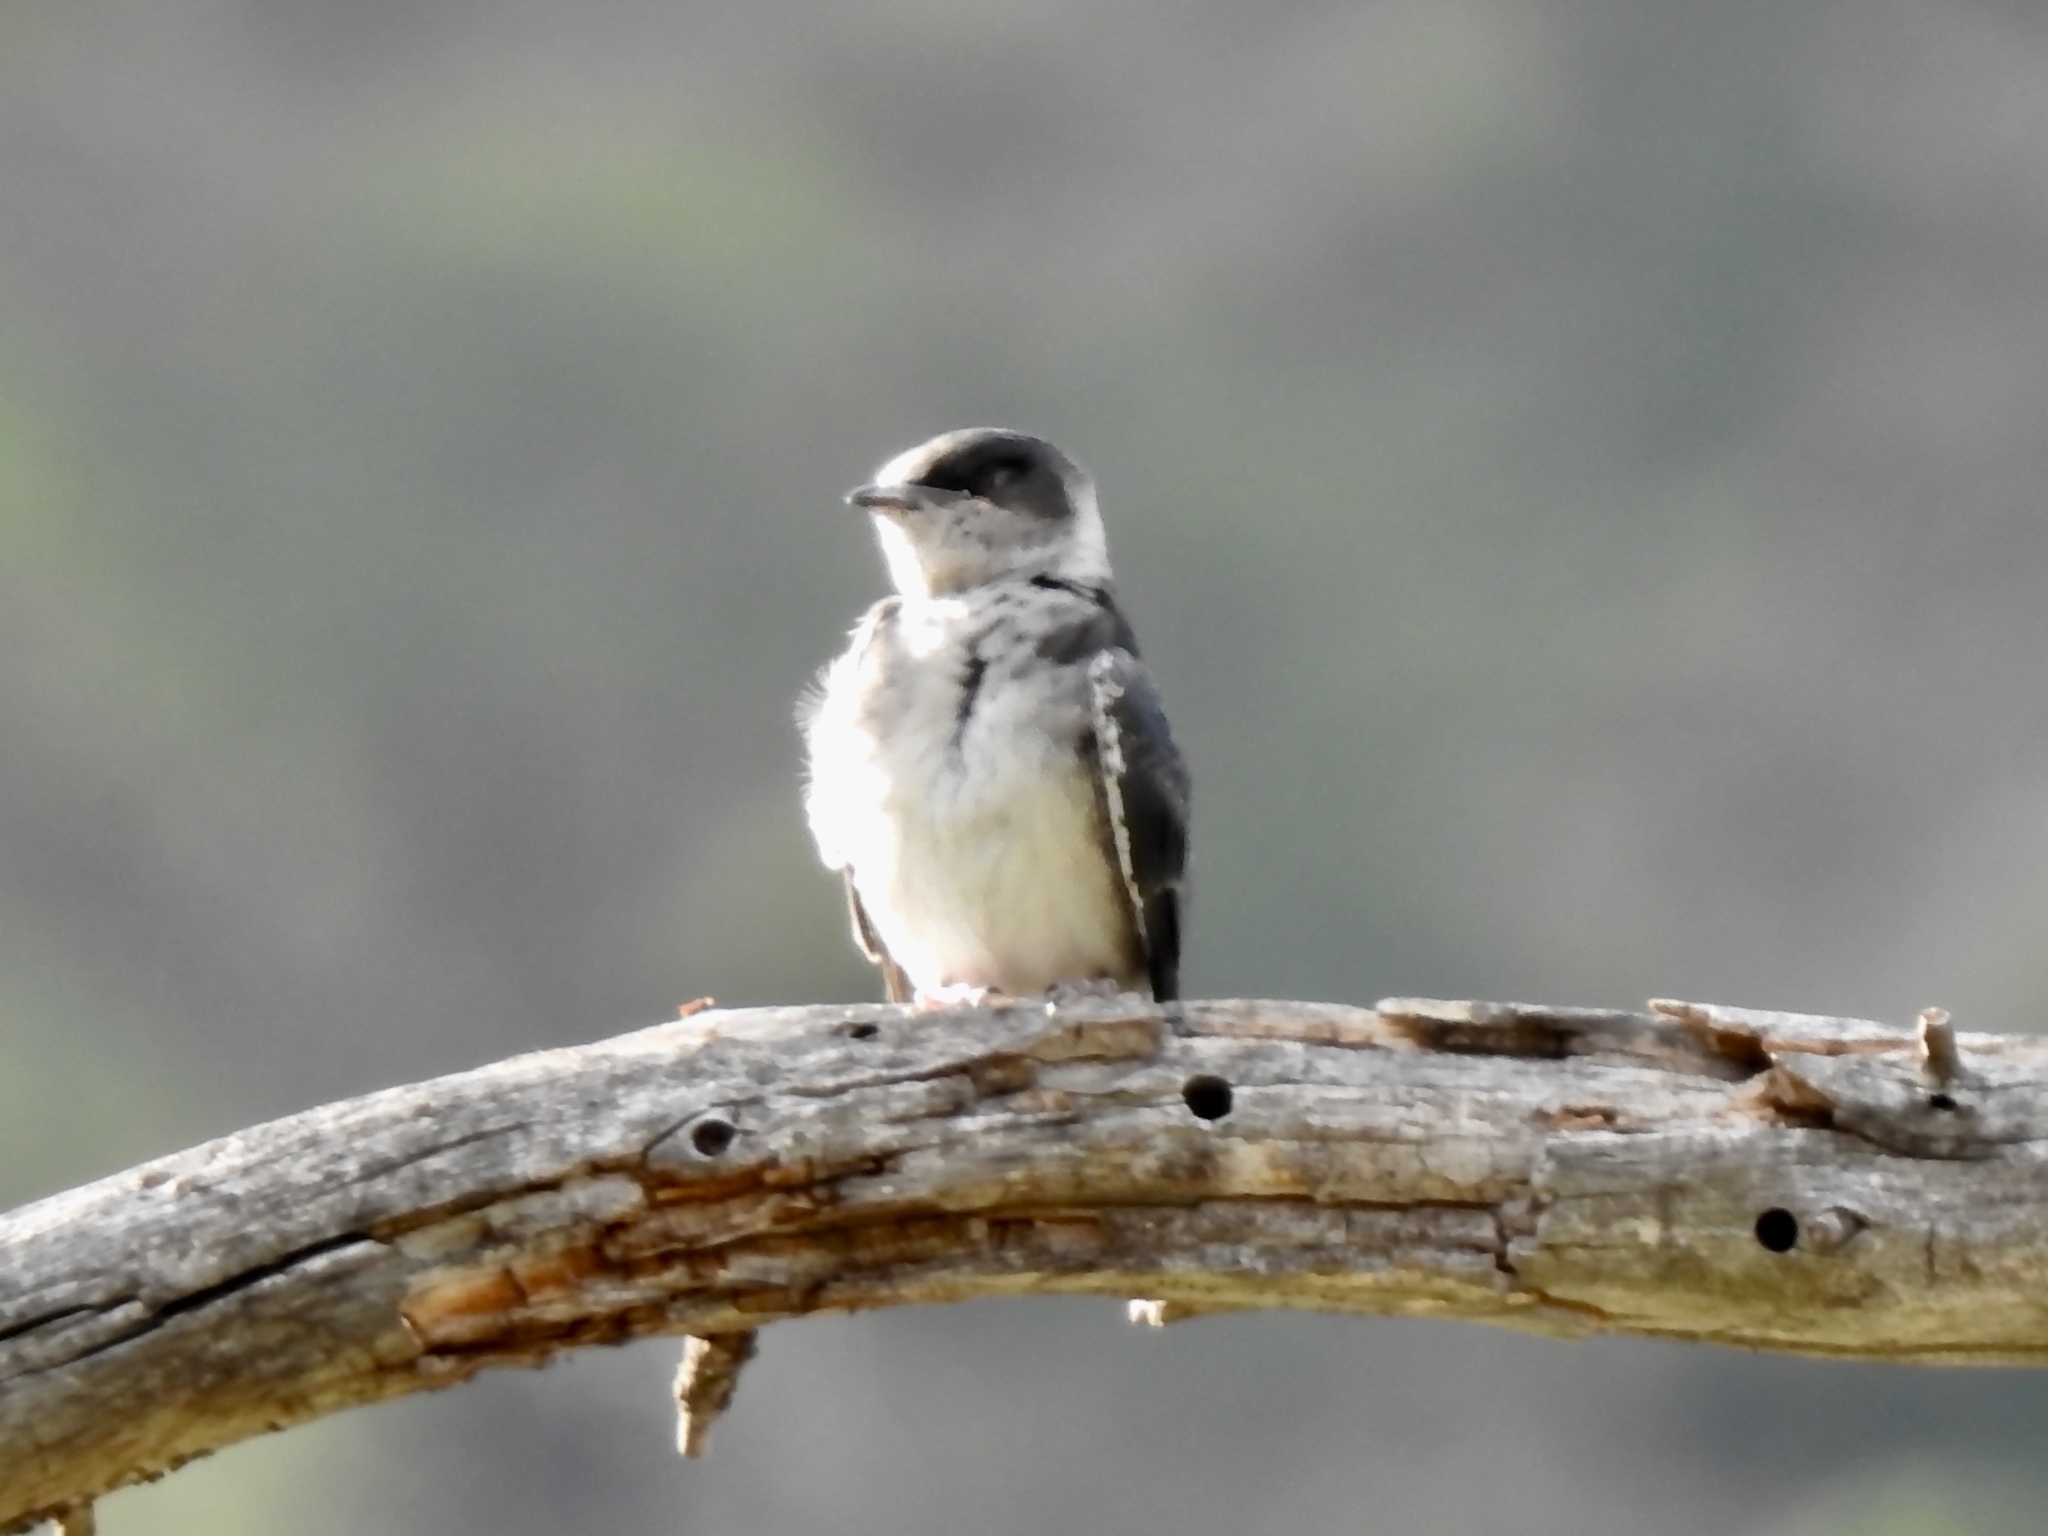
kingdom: Animalia
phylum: Chordata
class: Aves
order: Passeriformes
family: Hirundinidae
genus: Tachycineta
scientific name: Tachycineta thalassina
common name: Violet-green swallow
